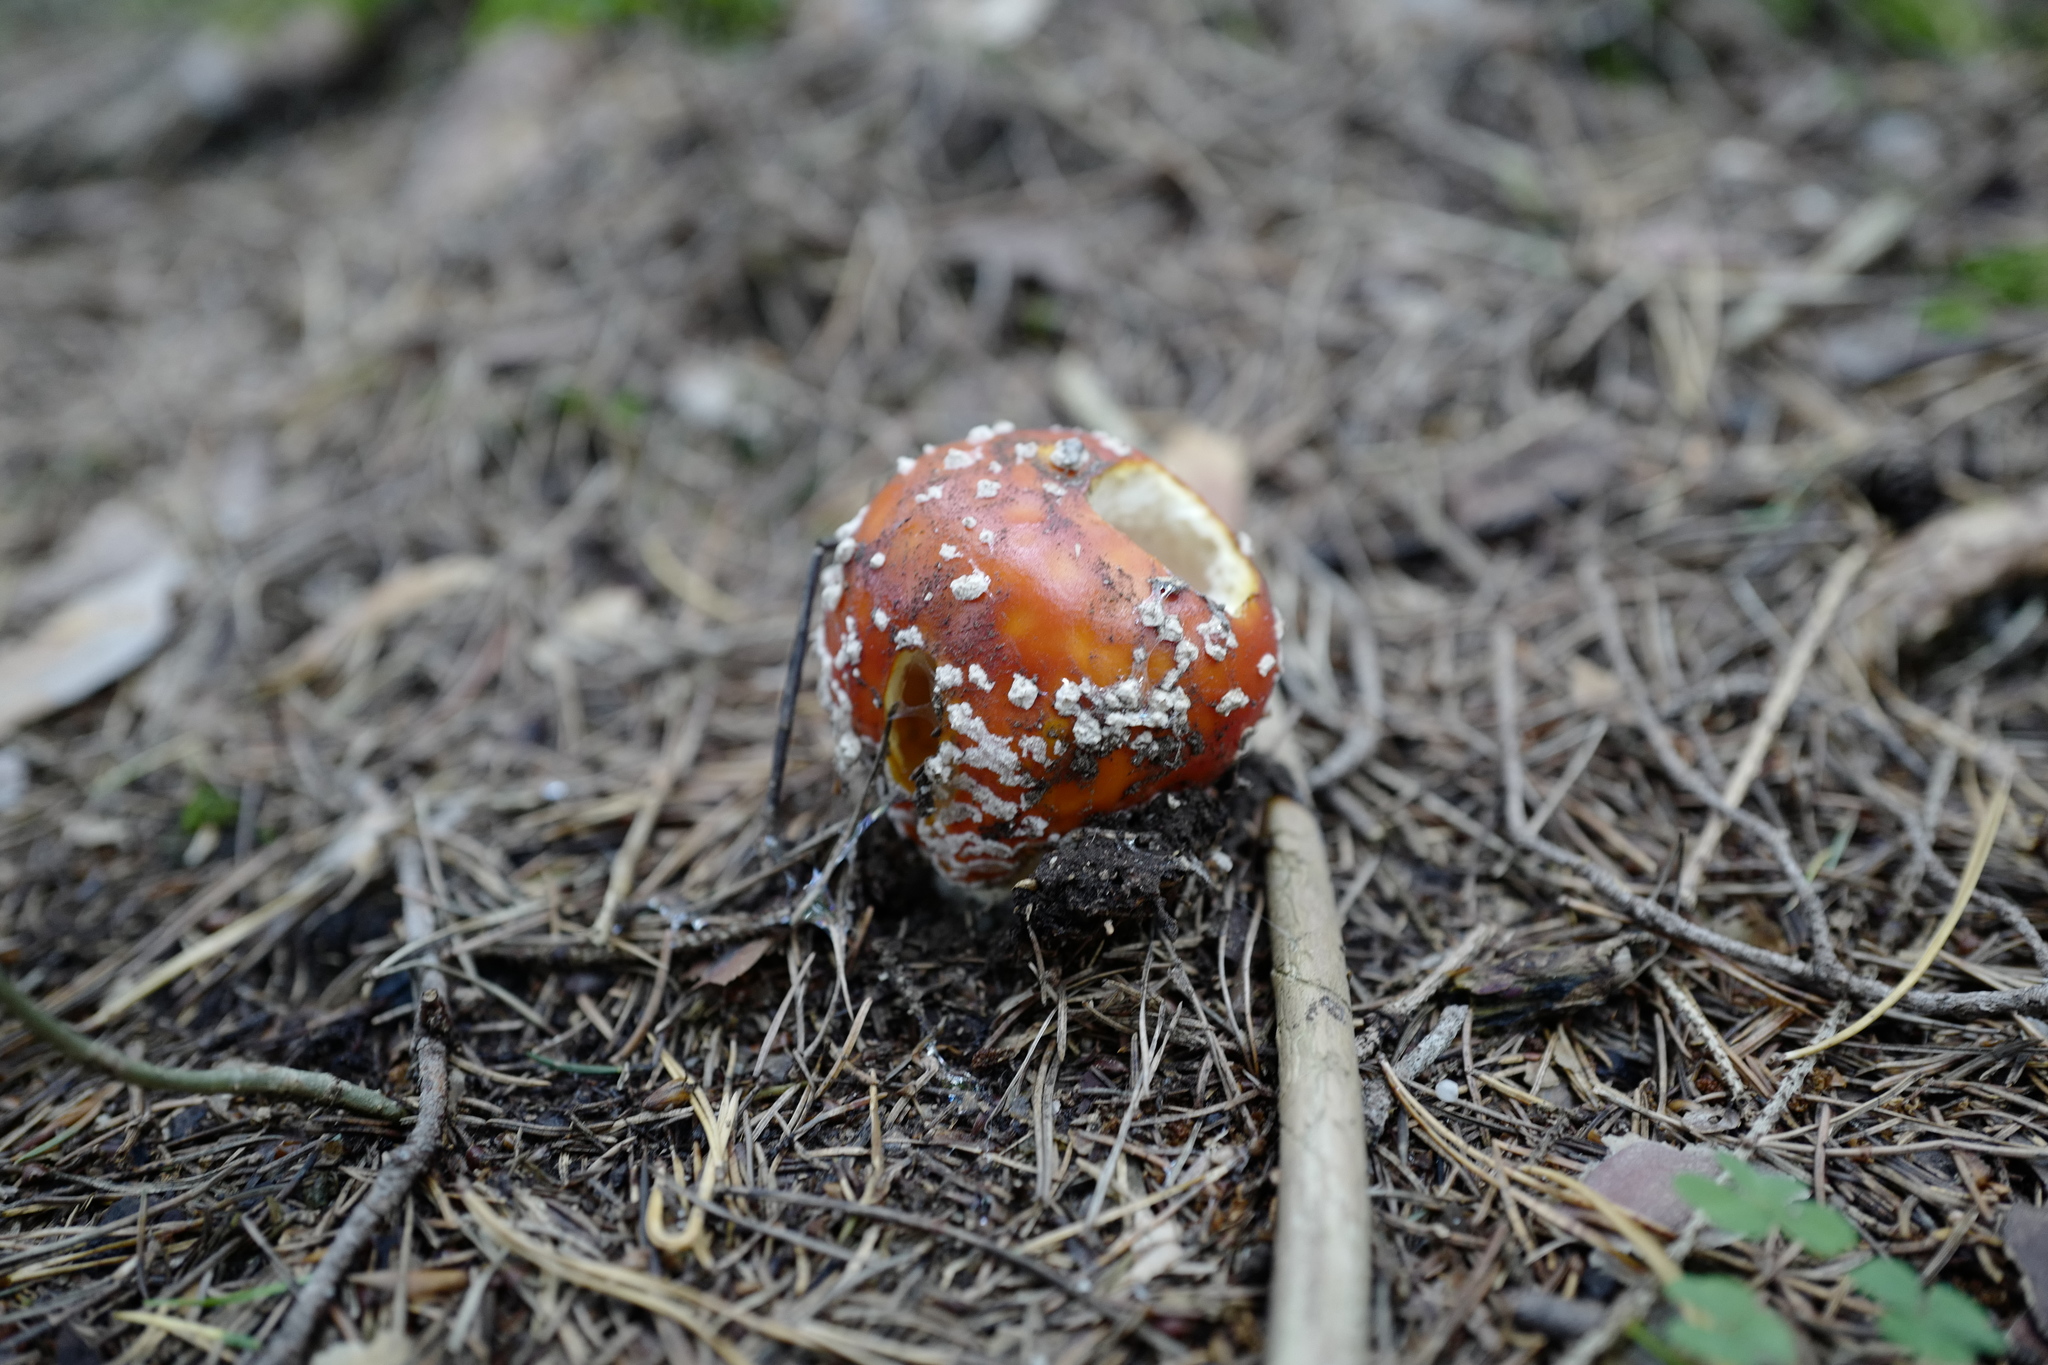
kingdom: Fungi
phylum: Basidiomycota
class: Agaricomycetes
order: Agaricales
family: Amanitaceae
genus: Amanita
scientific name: Amanita muscaria
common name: Fly agaric
